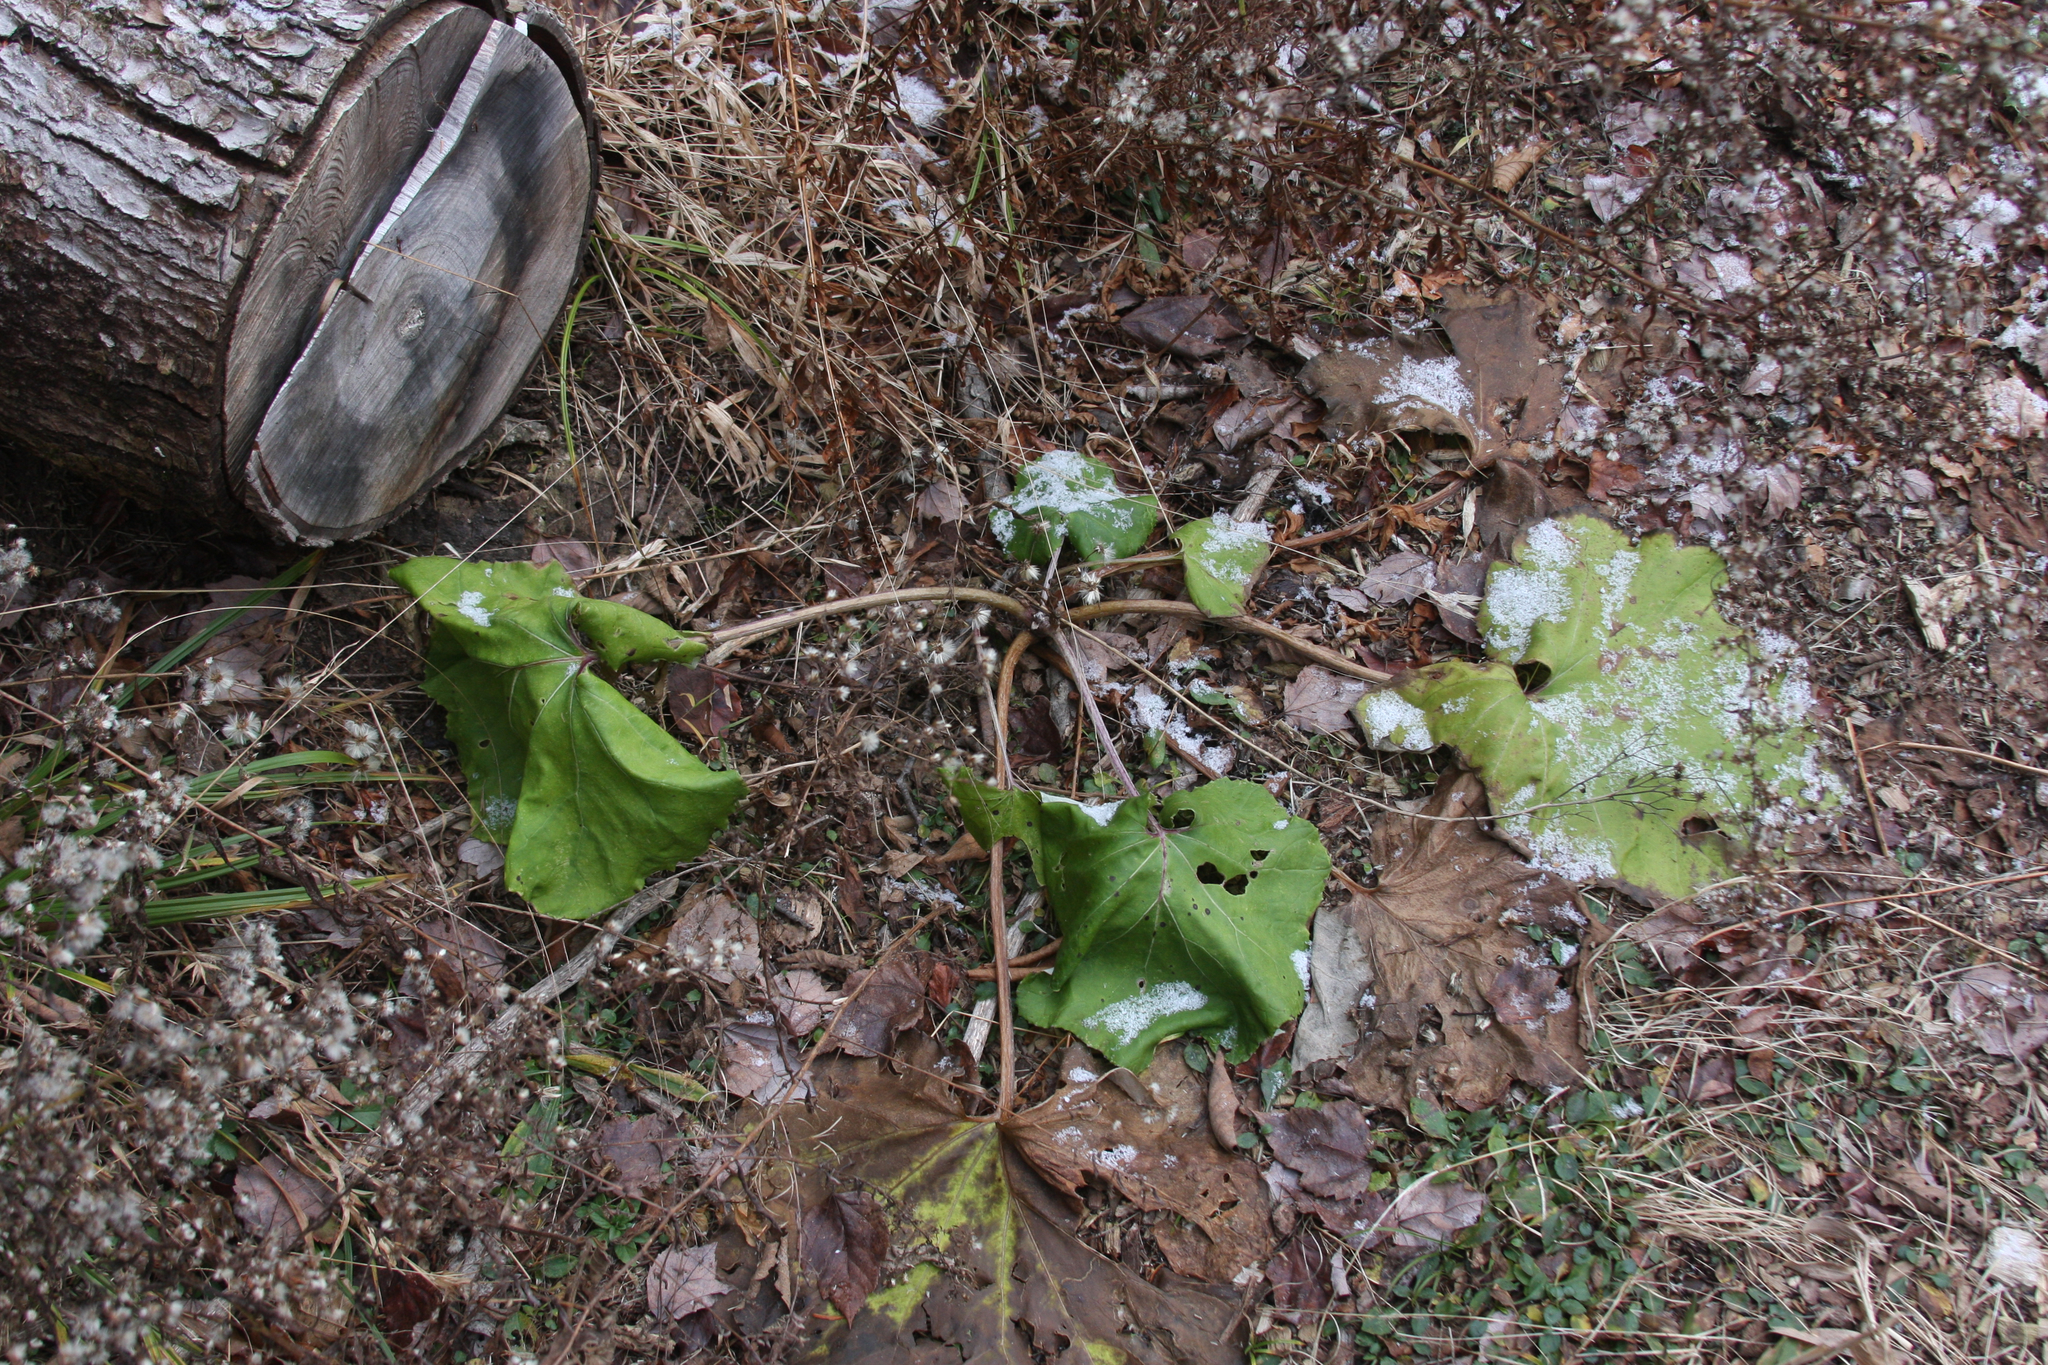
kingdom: Plantae
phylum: Tracheophyta
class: Magnoliopsida
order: Asterales
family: Asteraceae
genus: Tussilago
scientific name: Tussilago farfara
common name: Coltsfoot
